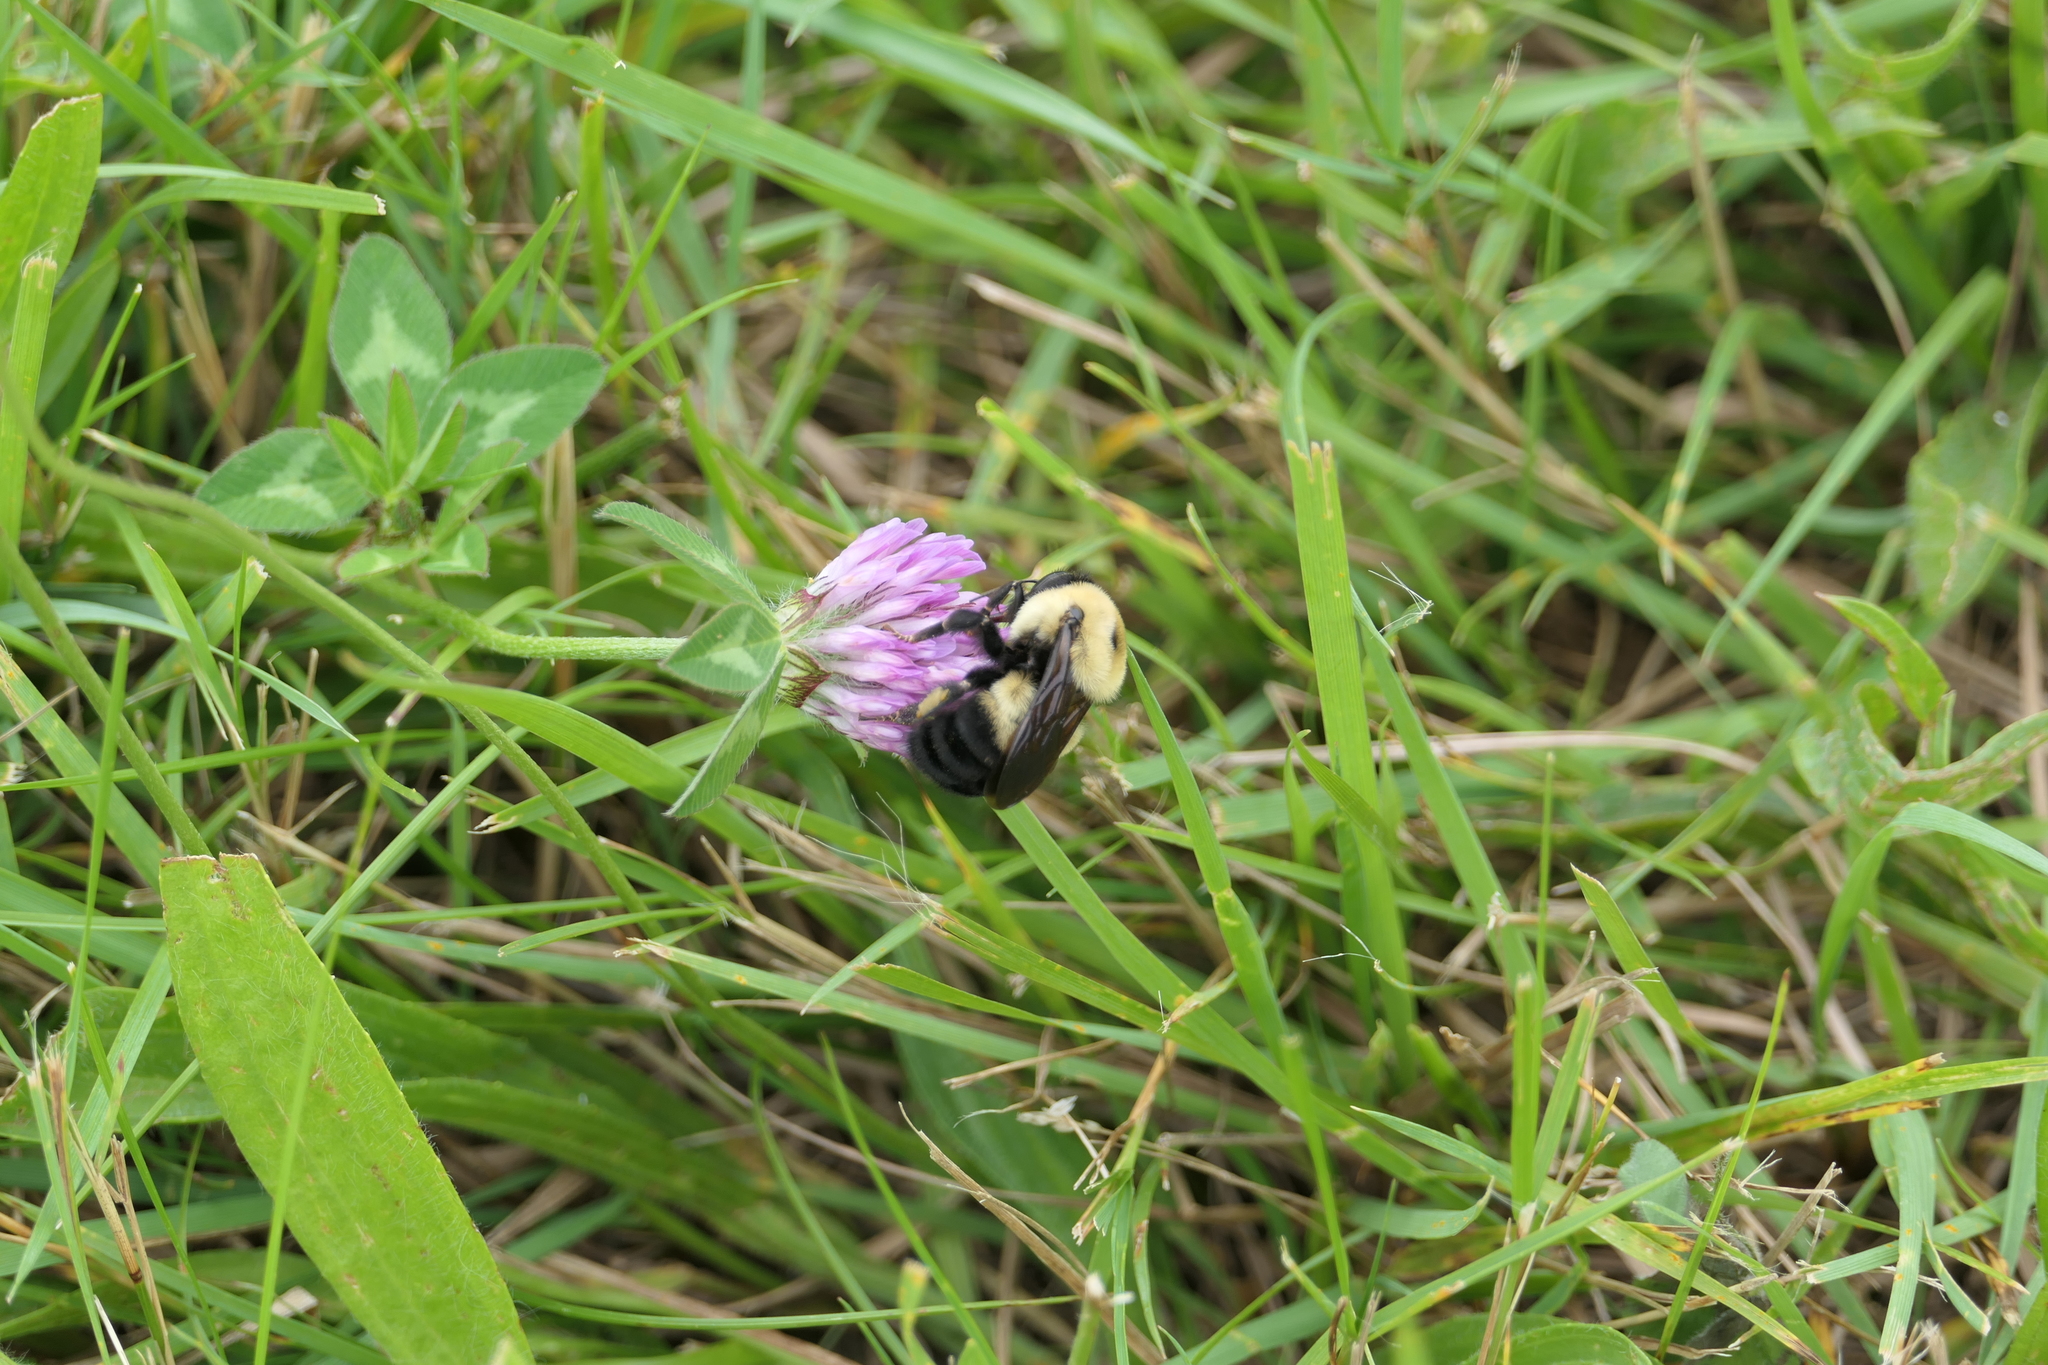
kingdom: Animalia
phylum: Arthropoda
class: Insecta
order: Hymenoptera
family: Apidae
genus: Bombus
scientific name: Bombus griseocollis
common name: Brown-belted bumble bee
